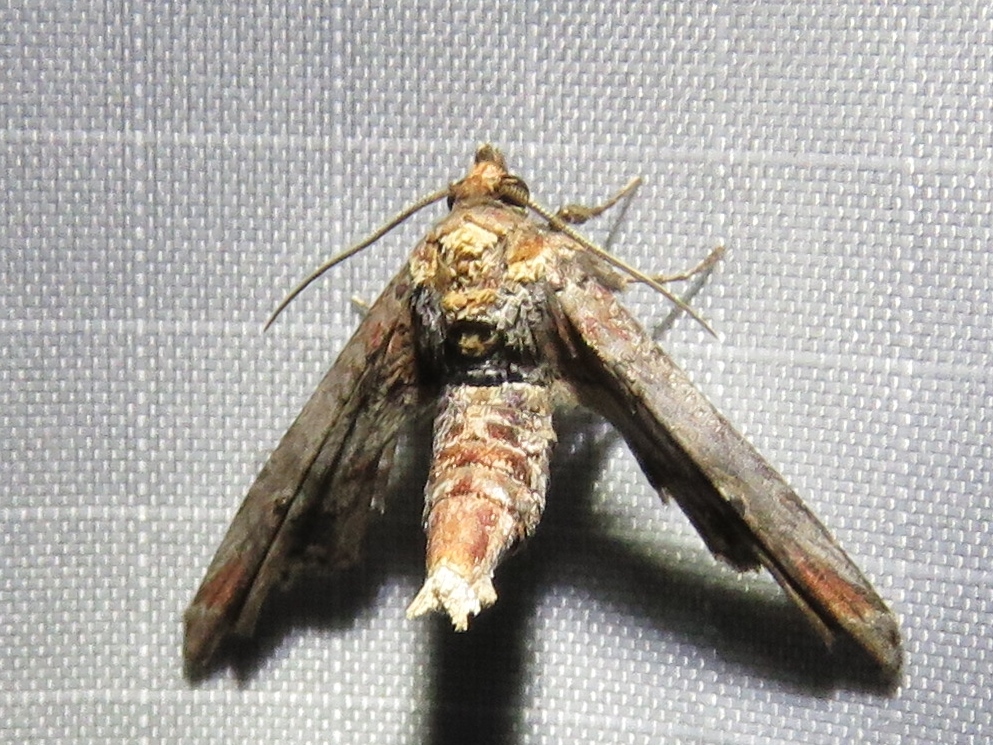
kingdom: Animalia
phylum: Arthropoda
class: Insecta
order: Lepidoptera
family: Euteliidae
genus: Marathyssa
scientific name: Marathyssa inficita
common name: Dark marathyssa moth
